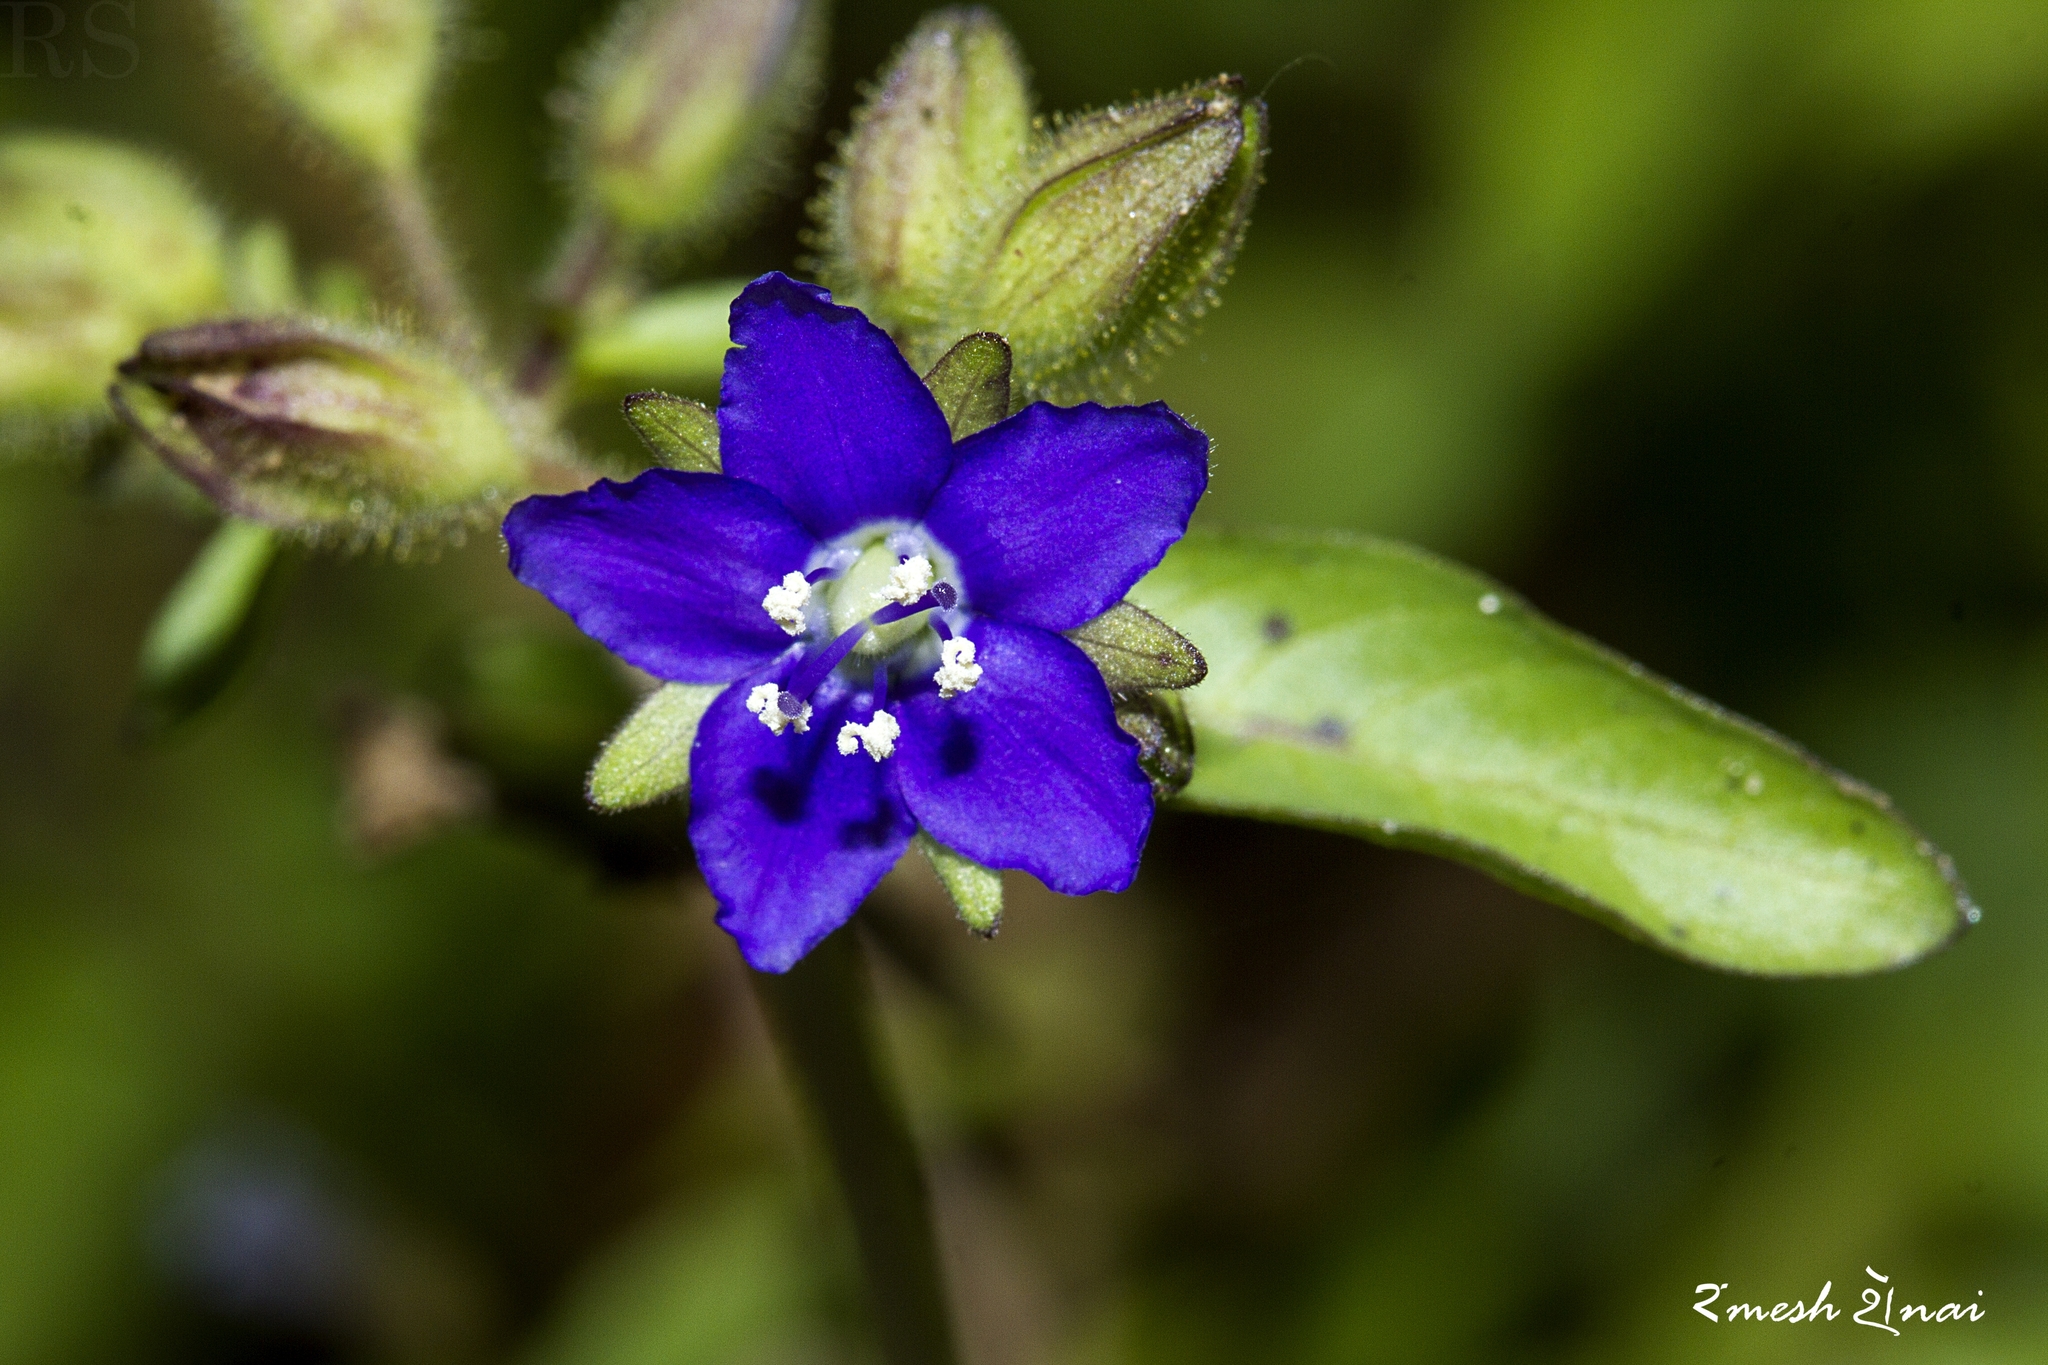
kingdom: Plantae
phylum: Tracheophyta
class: Magnoliopsida
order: Solanales
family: Hydroleaceae
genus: Hydrolea
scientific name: Hydrolea zeylanica
